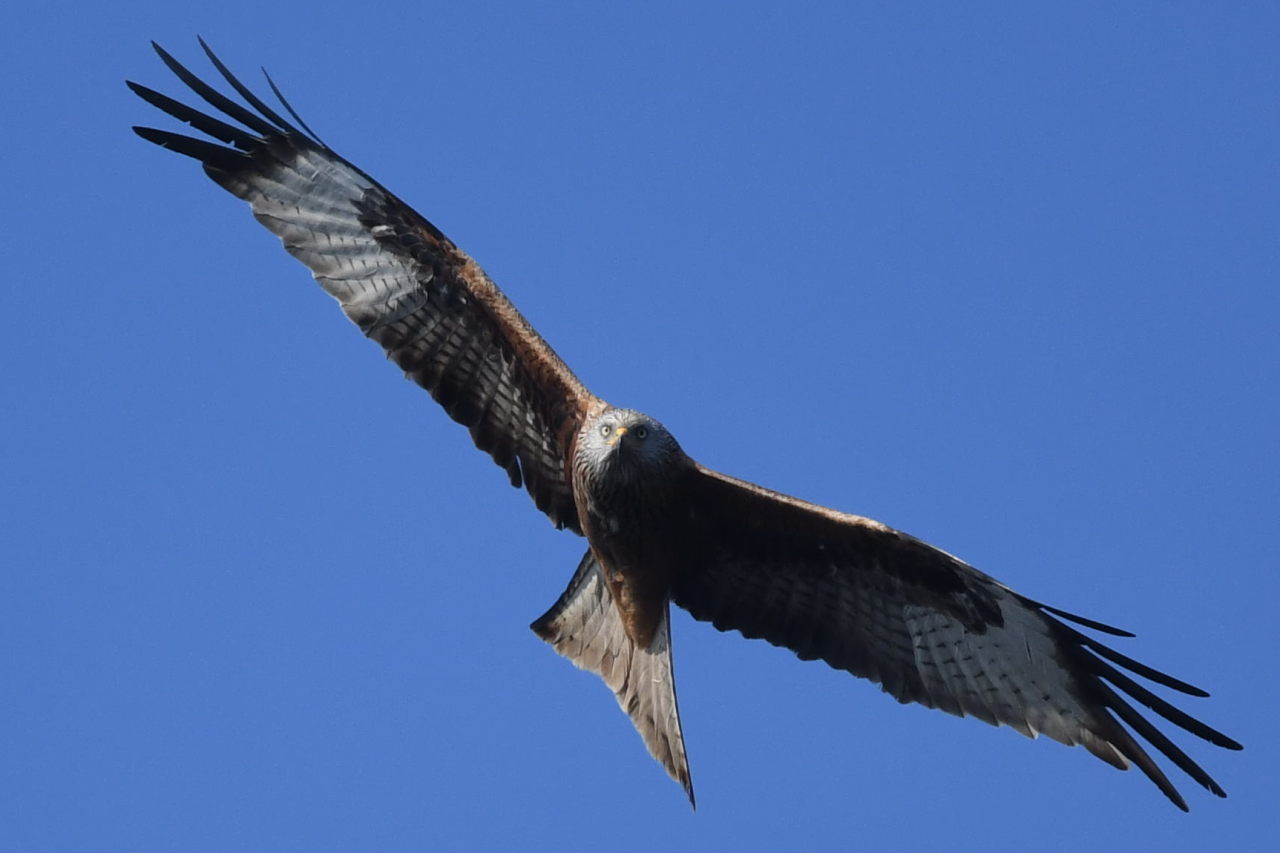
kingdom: Animalia
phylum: Chordata
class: Aves
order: Accipitriformes
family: Accipitridae
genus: Milvus
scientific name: Milvus milvus
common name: Red kite
